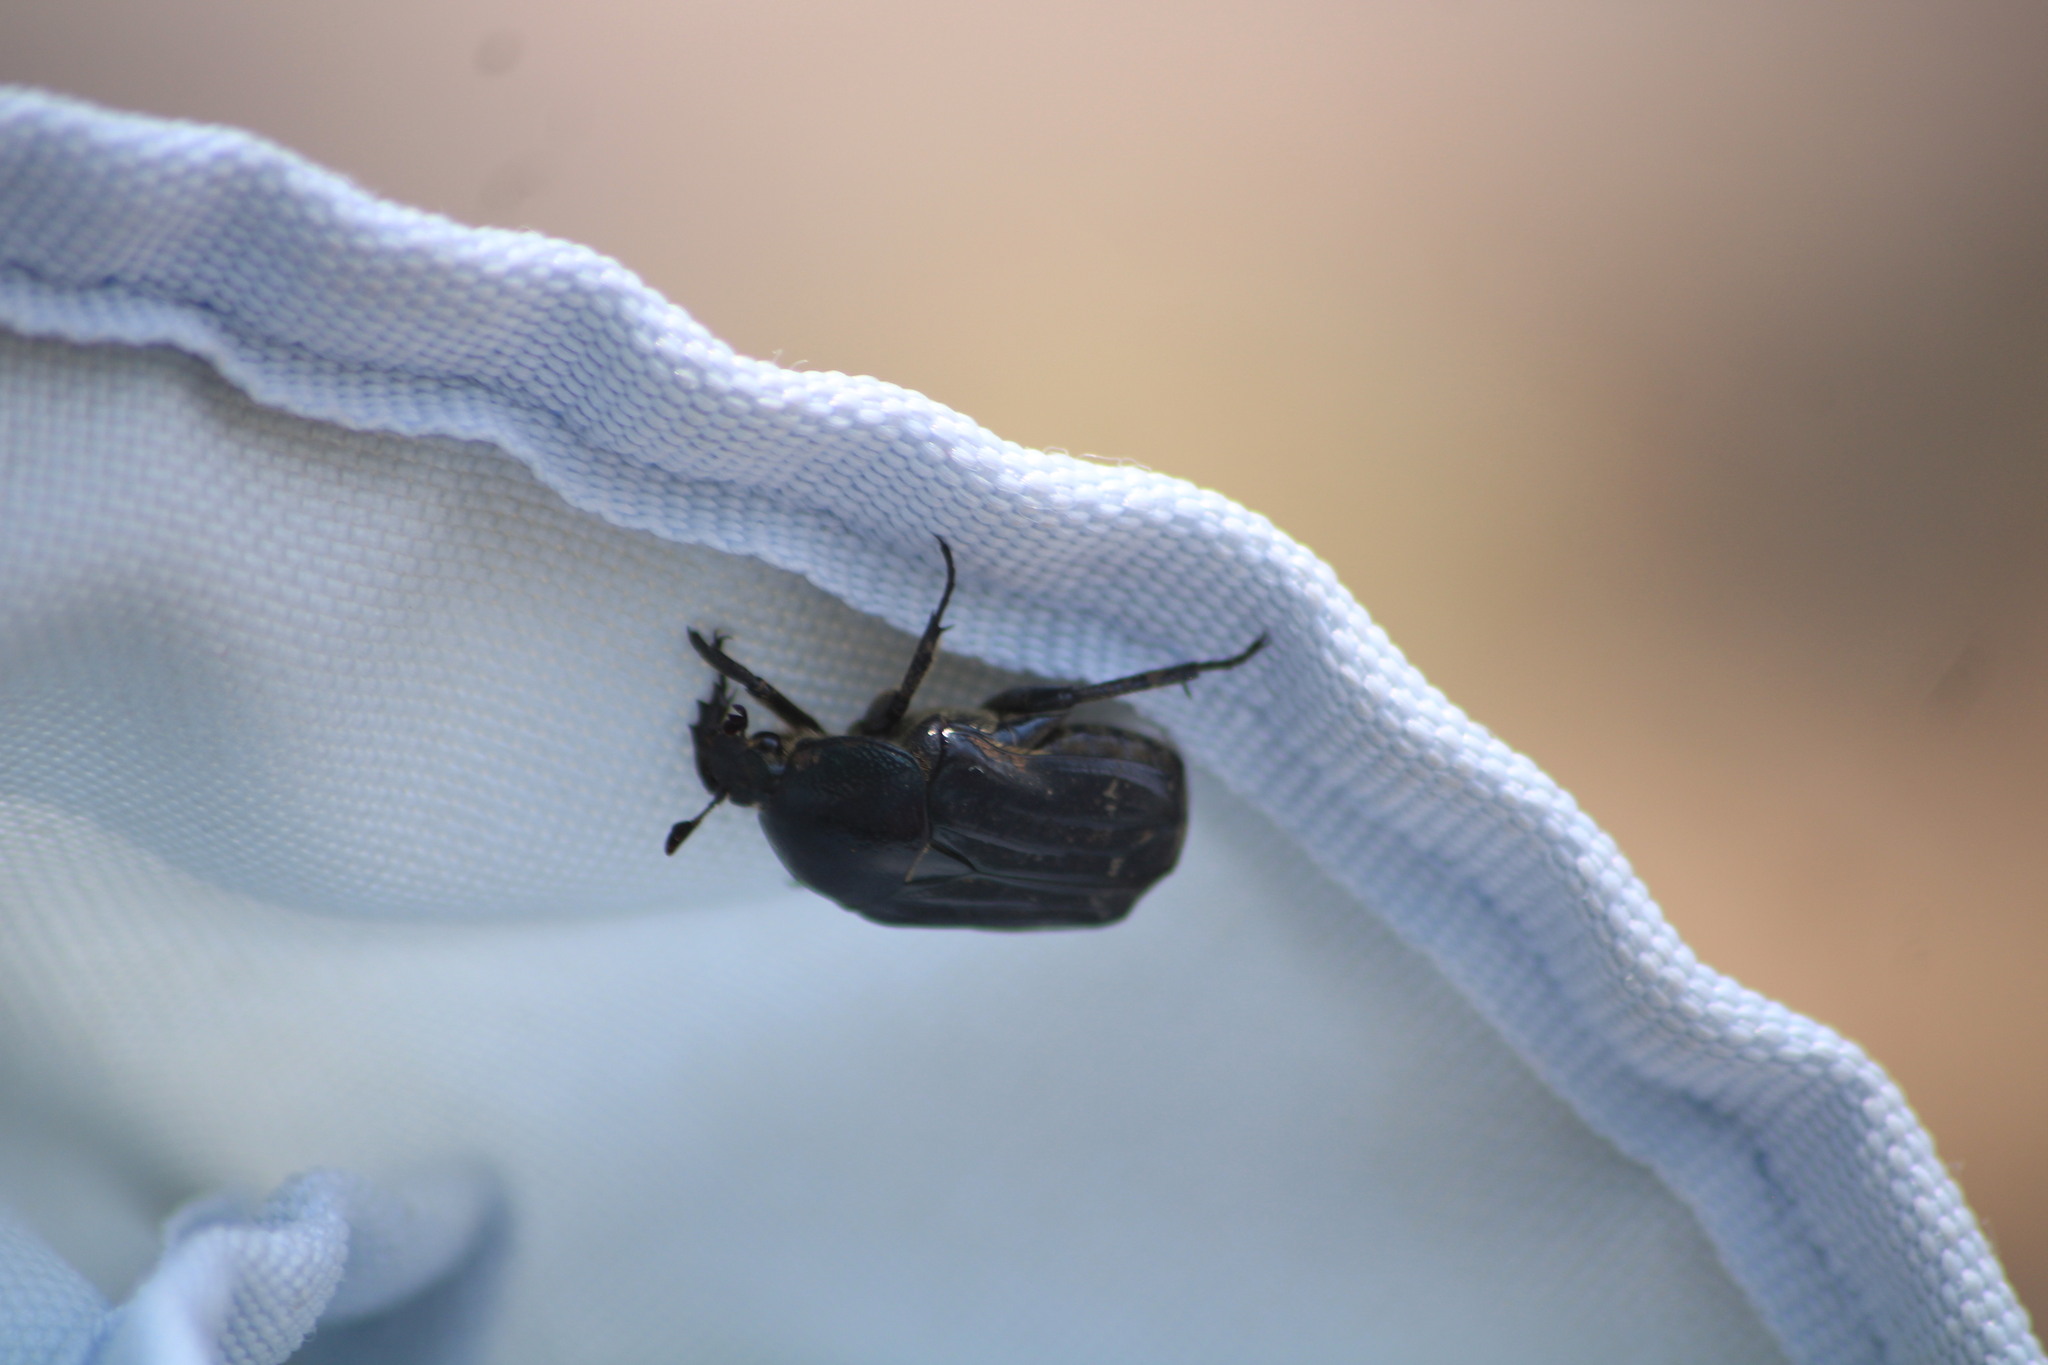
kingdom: Animalia
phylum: Arthropoda
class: Insecta
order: Coleoptera
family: Scarabaeidae
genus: Euphoria
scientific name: Euphoria monticola
